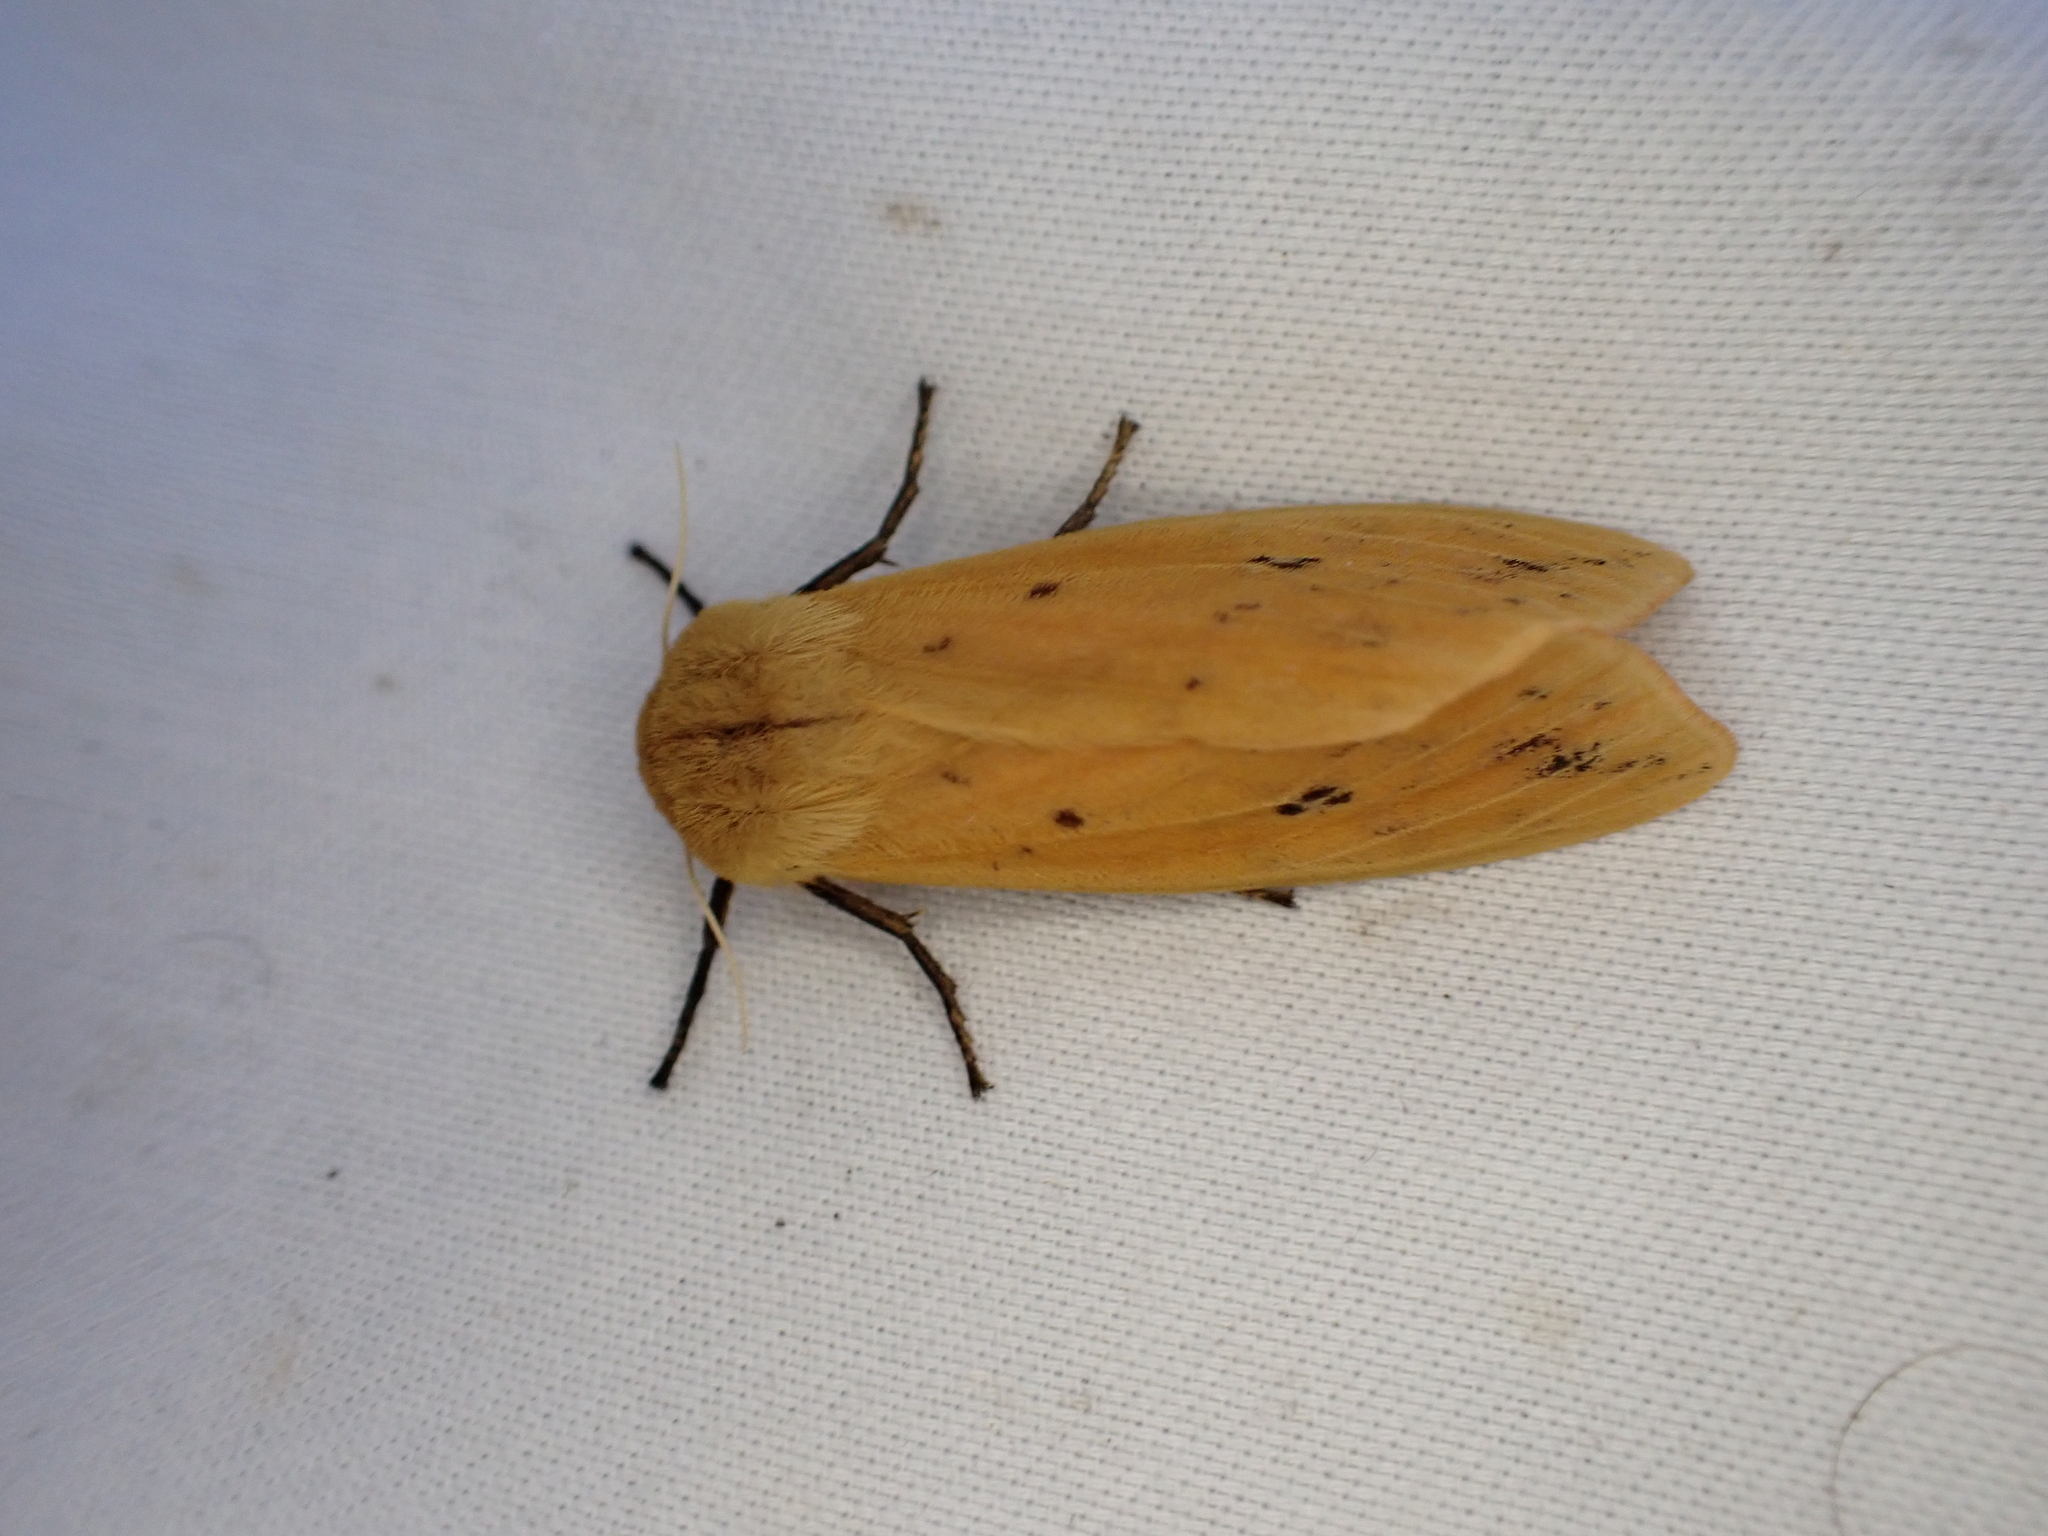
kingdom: Animalia
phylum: Arthropoda
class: Insecta
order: Lepidoptera
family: Erebidae
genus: Pyrrharctia
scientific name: Pyrrharctia isabella
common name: Isabella tiger moth
